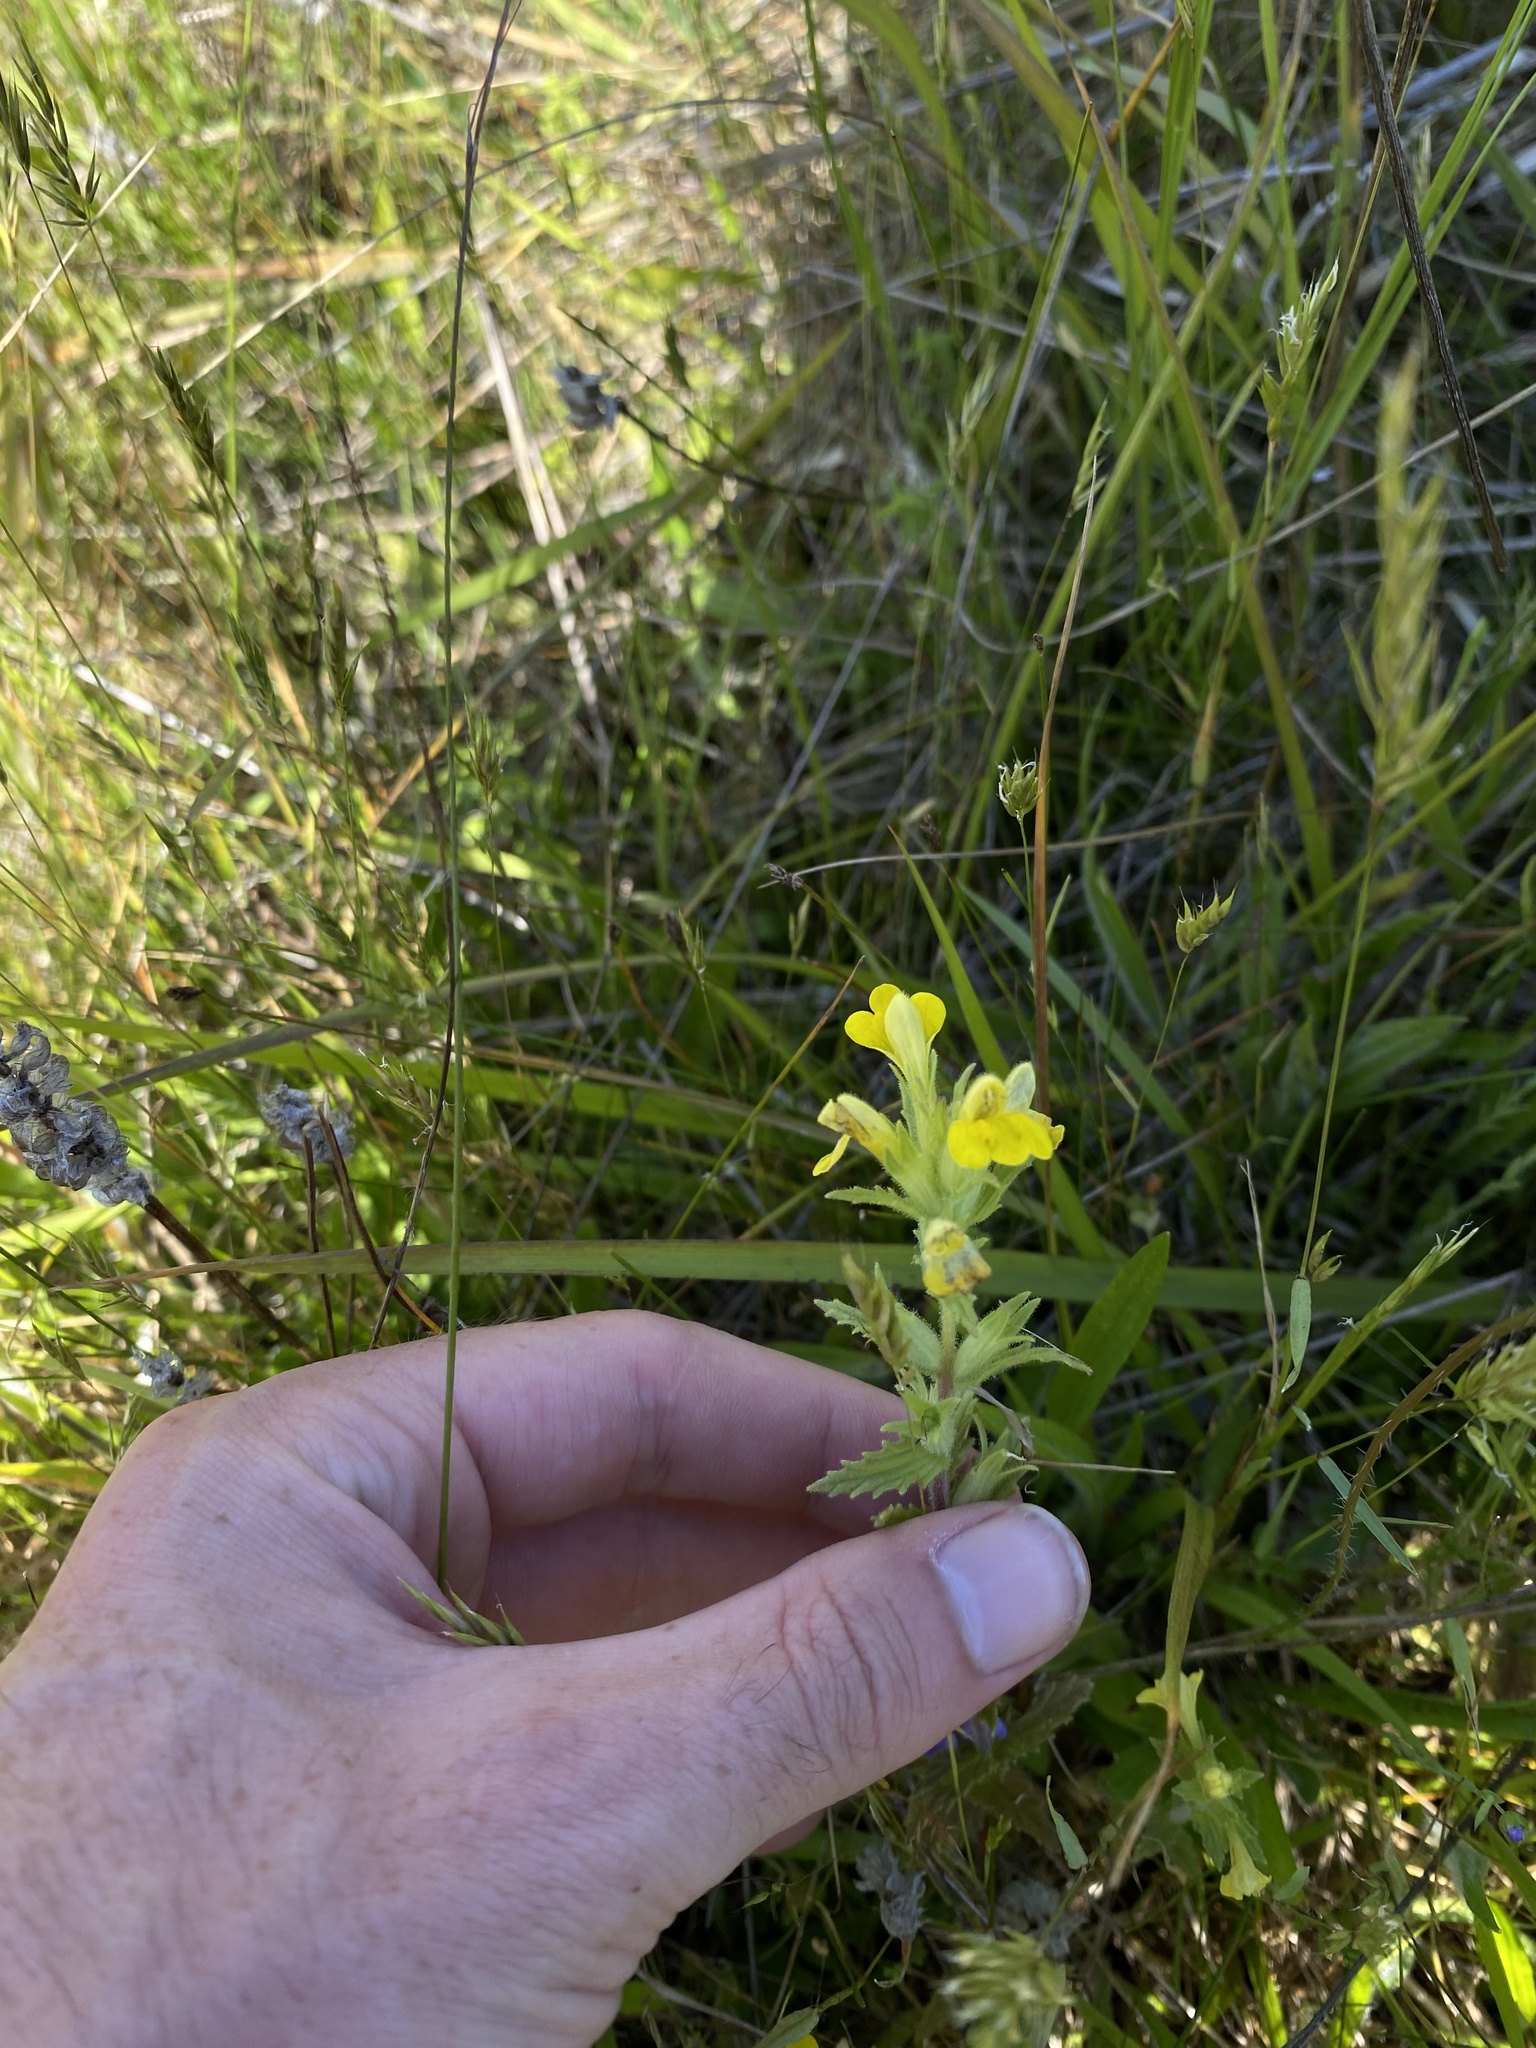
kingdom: Plantae
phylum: Tracheophyta
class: Magnoliopsida
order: Lamiales
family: Orobanchaceae
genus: Bellardia
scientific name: Bellardia viscosa
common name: Sticky parentucellia
